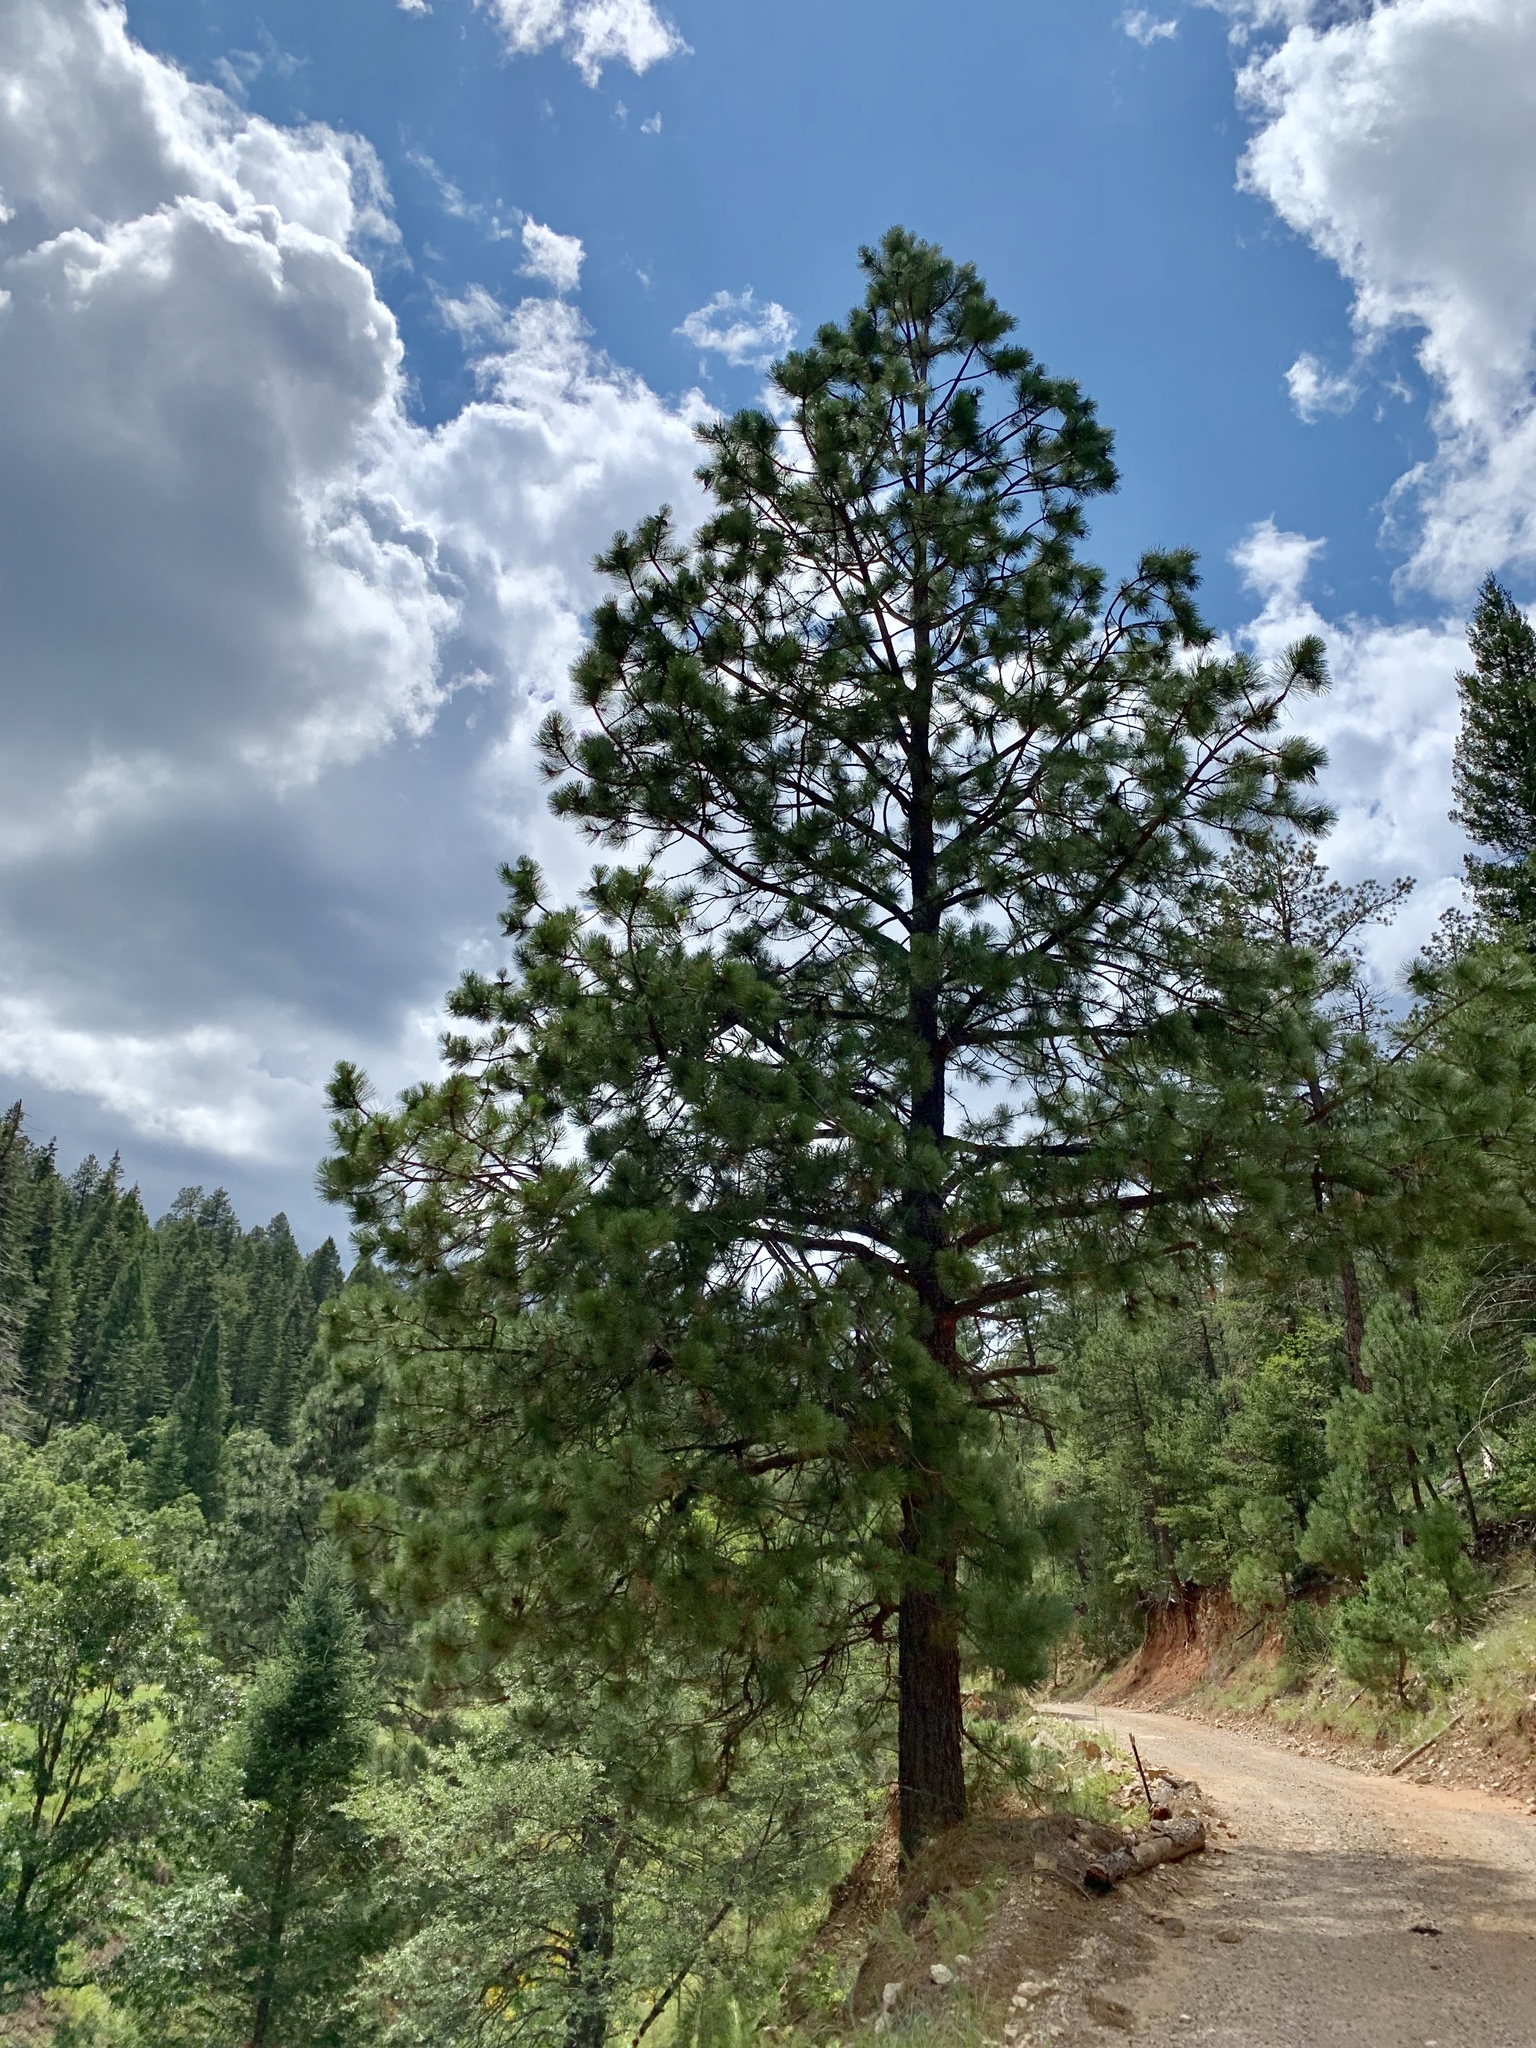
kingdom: Plantae
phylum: Tracheophyta
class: Pinopsida
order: Pinales
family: Pinaceae
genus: Pinus
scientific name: Pinus ponderosa
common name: Western yellow-pine
